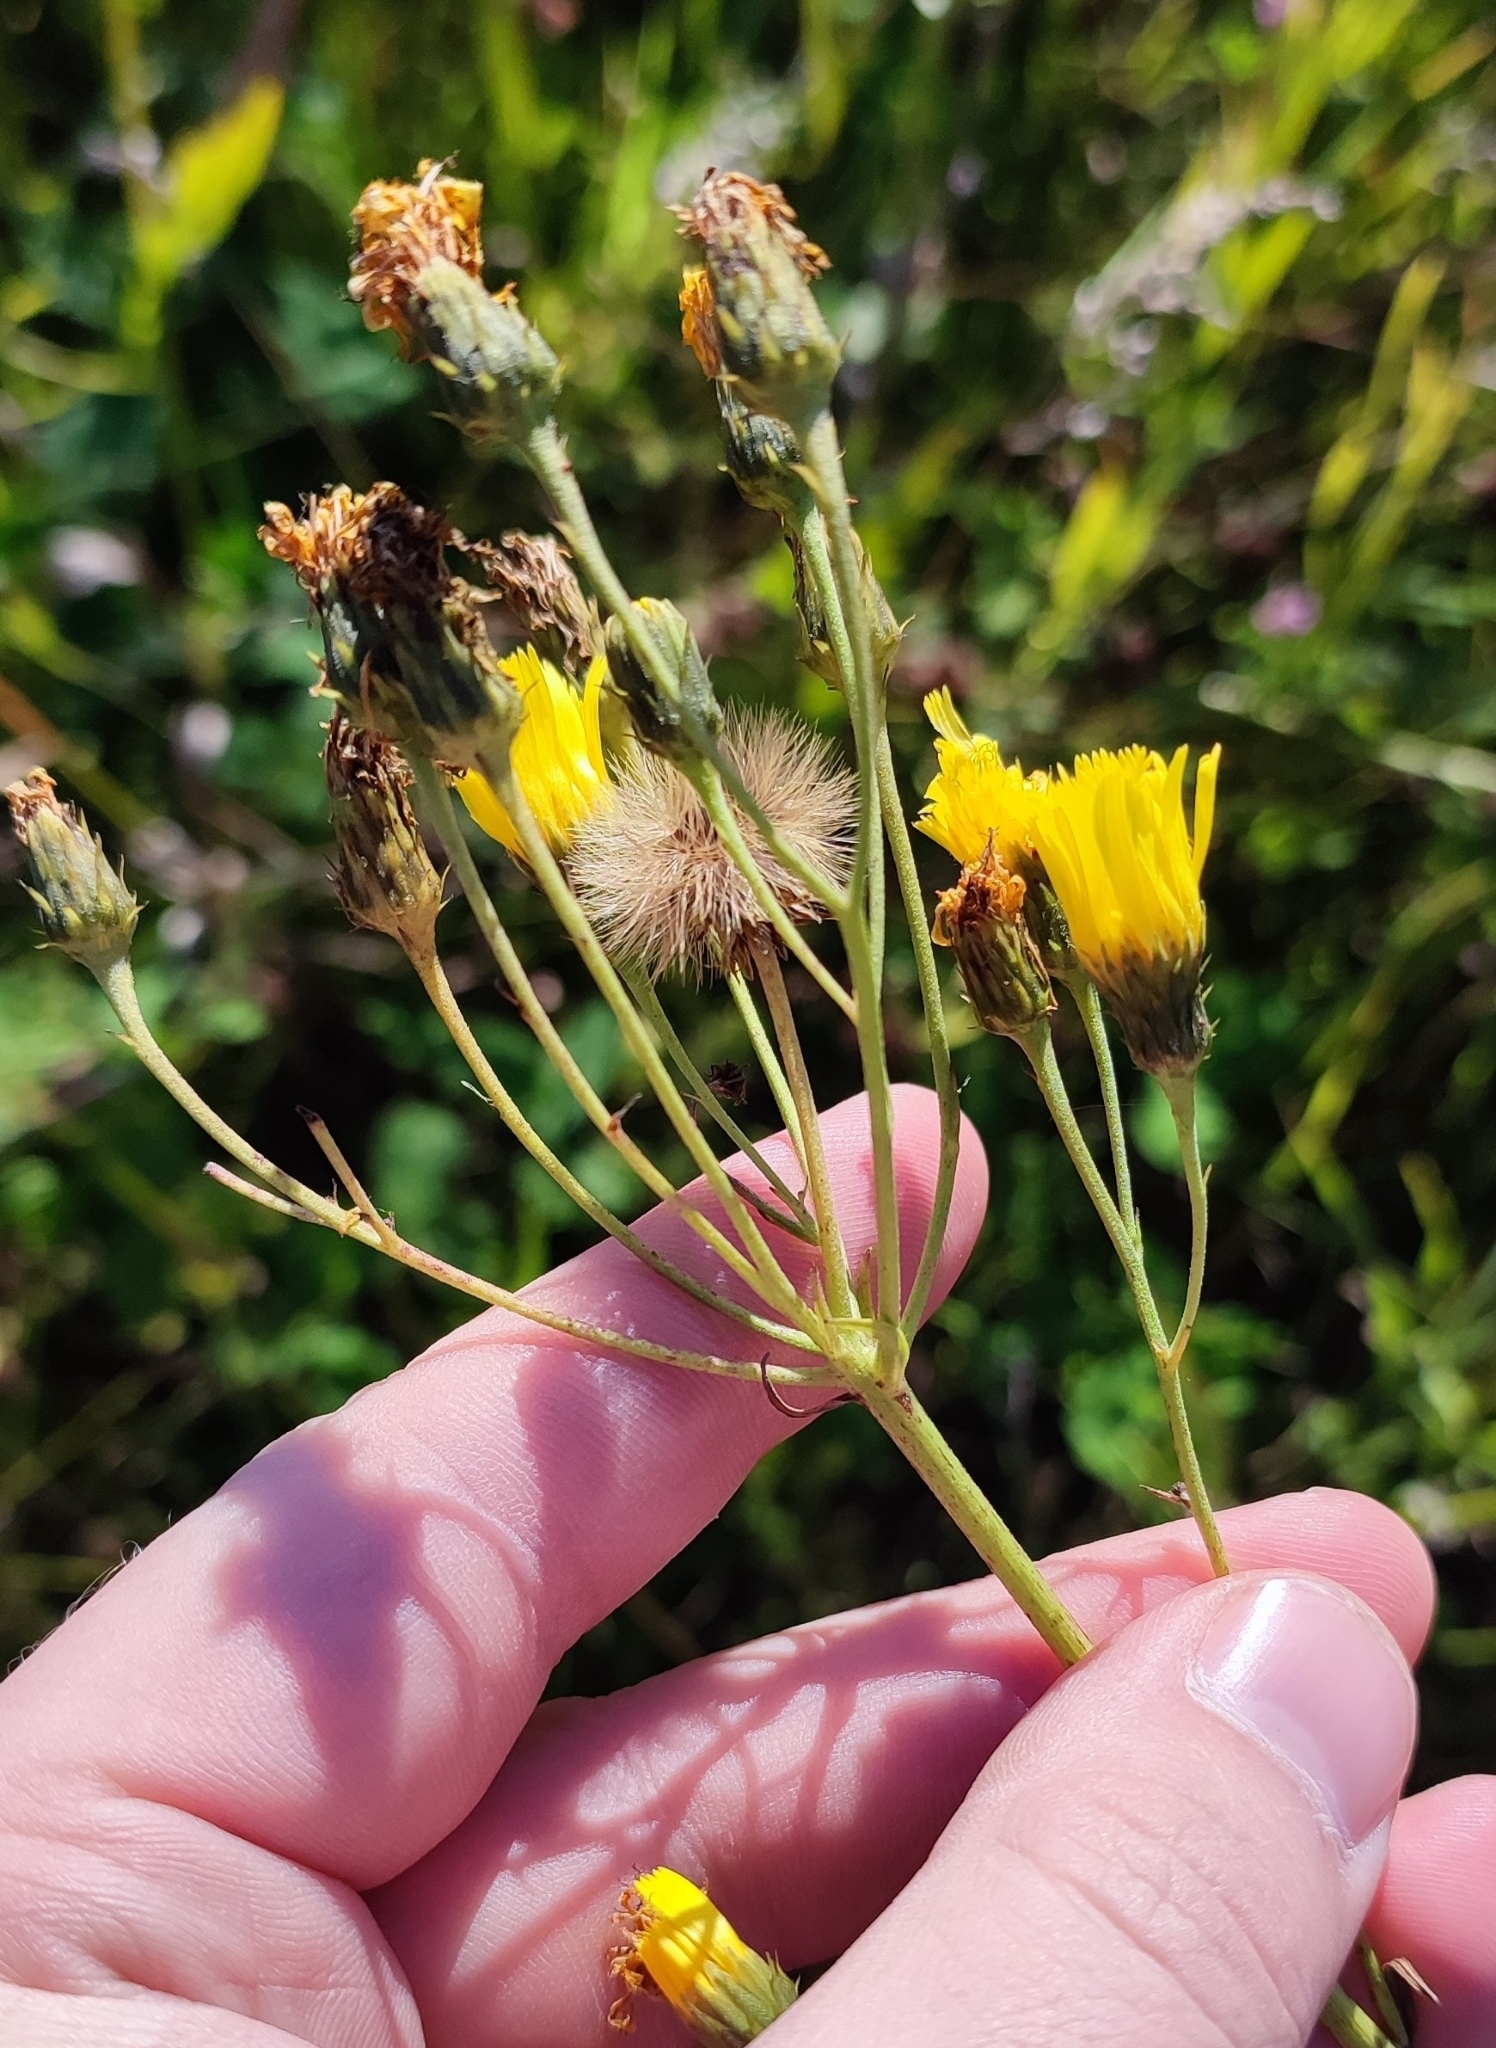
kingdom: Plantae
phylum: Tracheophyta
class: Magnoliopsida
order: Asterales
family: Asteraceae
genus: Hieracium
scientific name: Hieracium umbellatum
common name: Northern hawkweed
